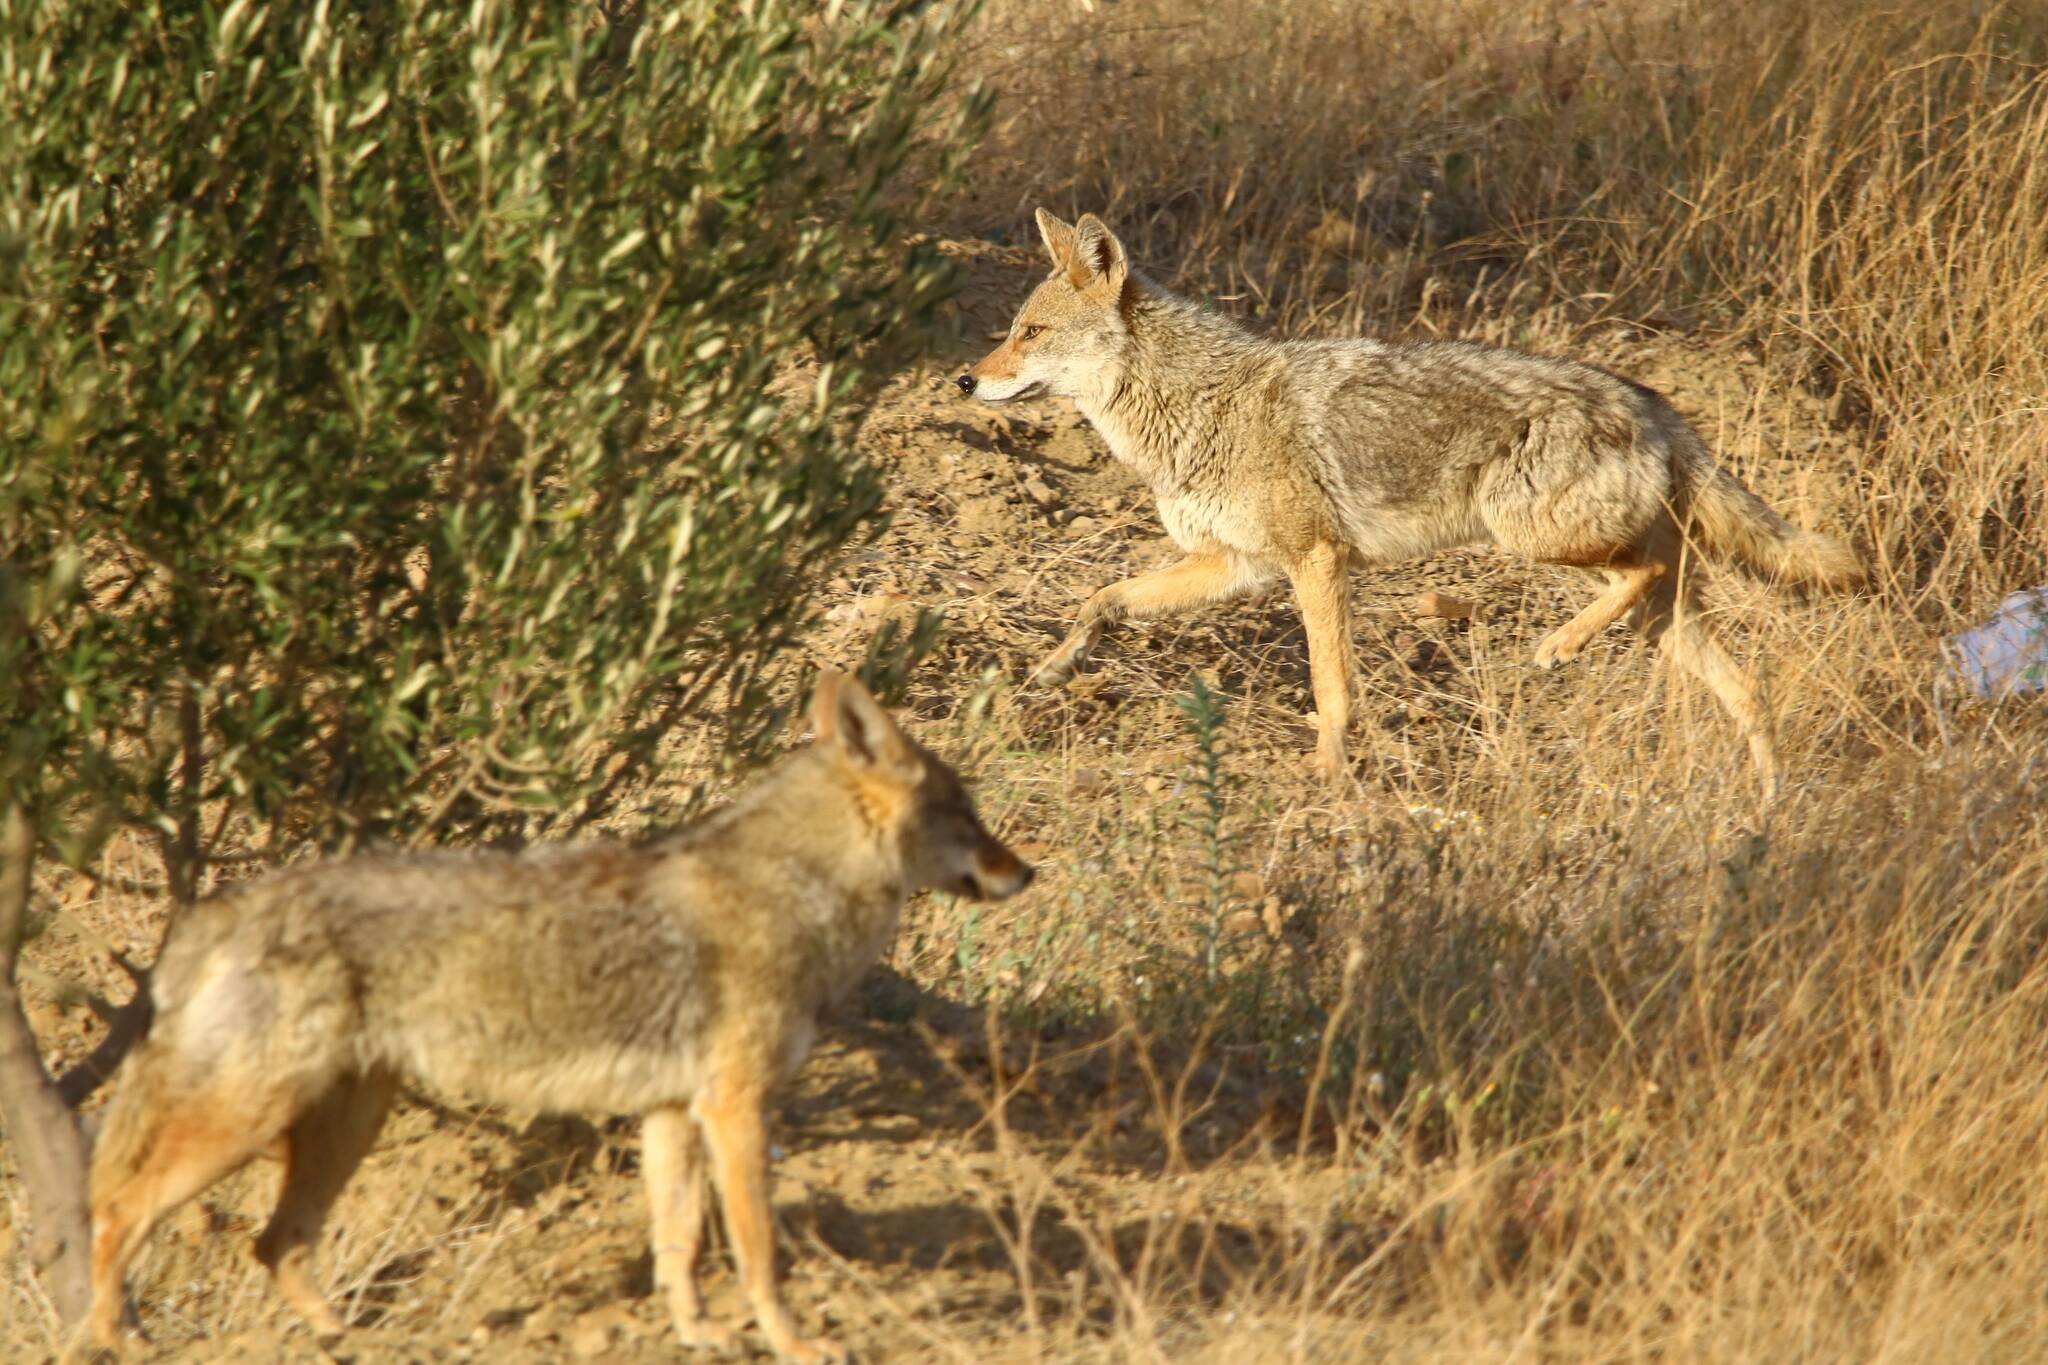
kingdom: Animalia
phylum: Chordata
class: Mammalia
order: Carnivora
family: Canidae
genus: Canis
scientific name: Canis lupaster
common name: African golden wolf
